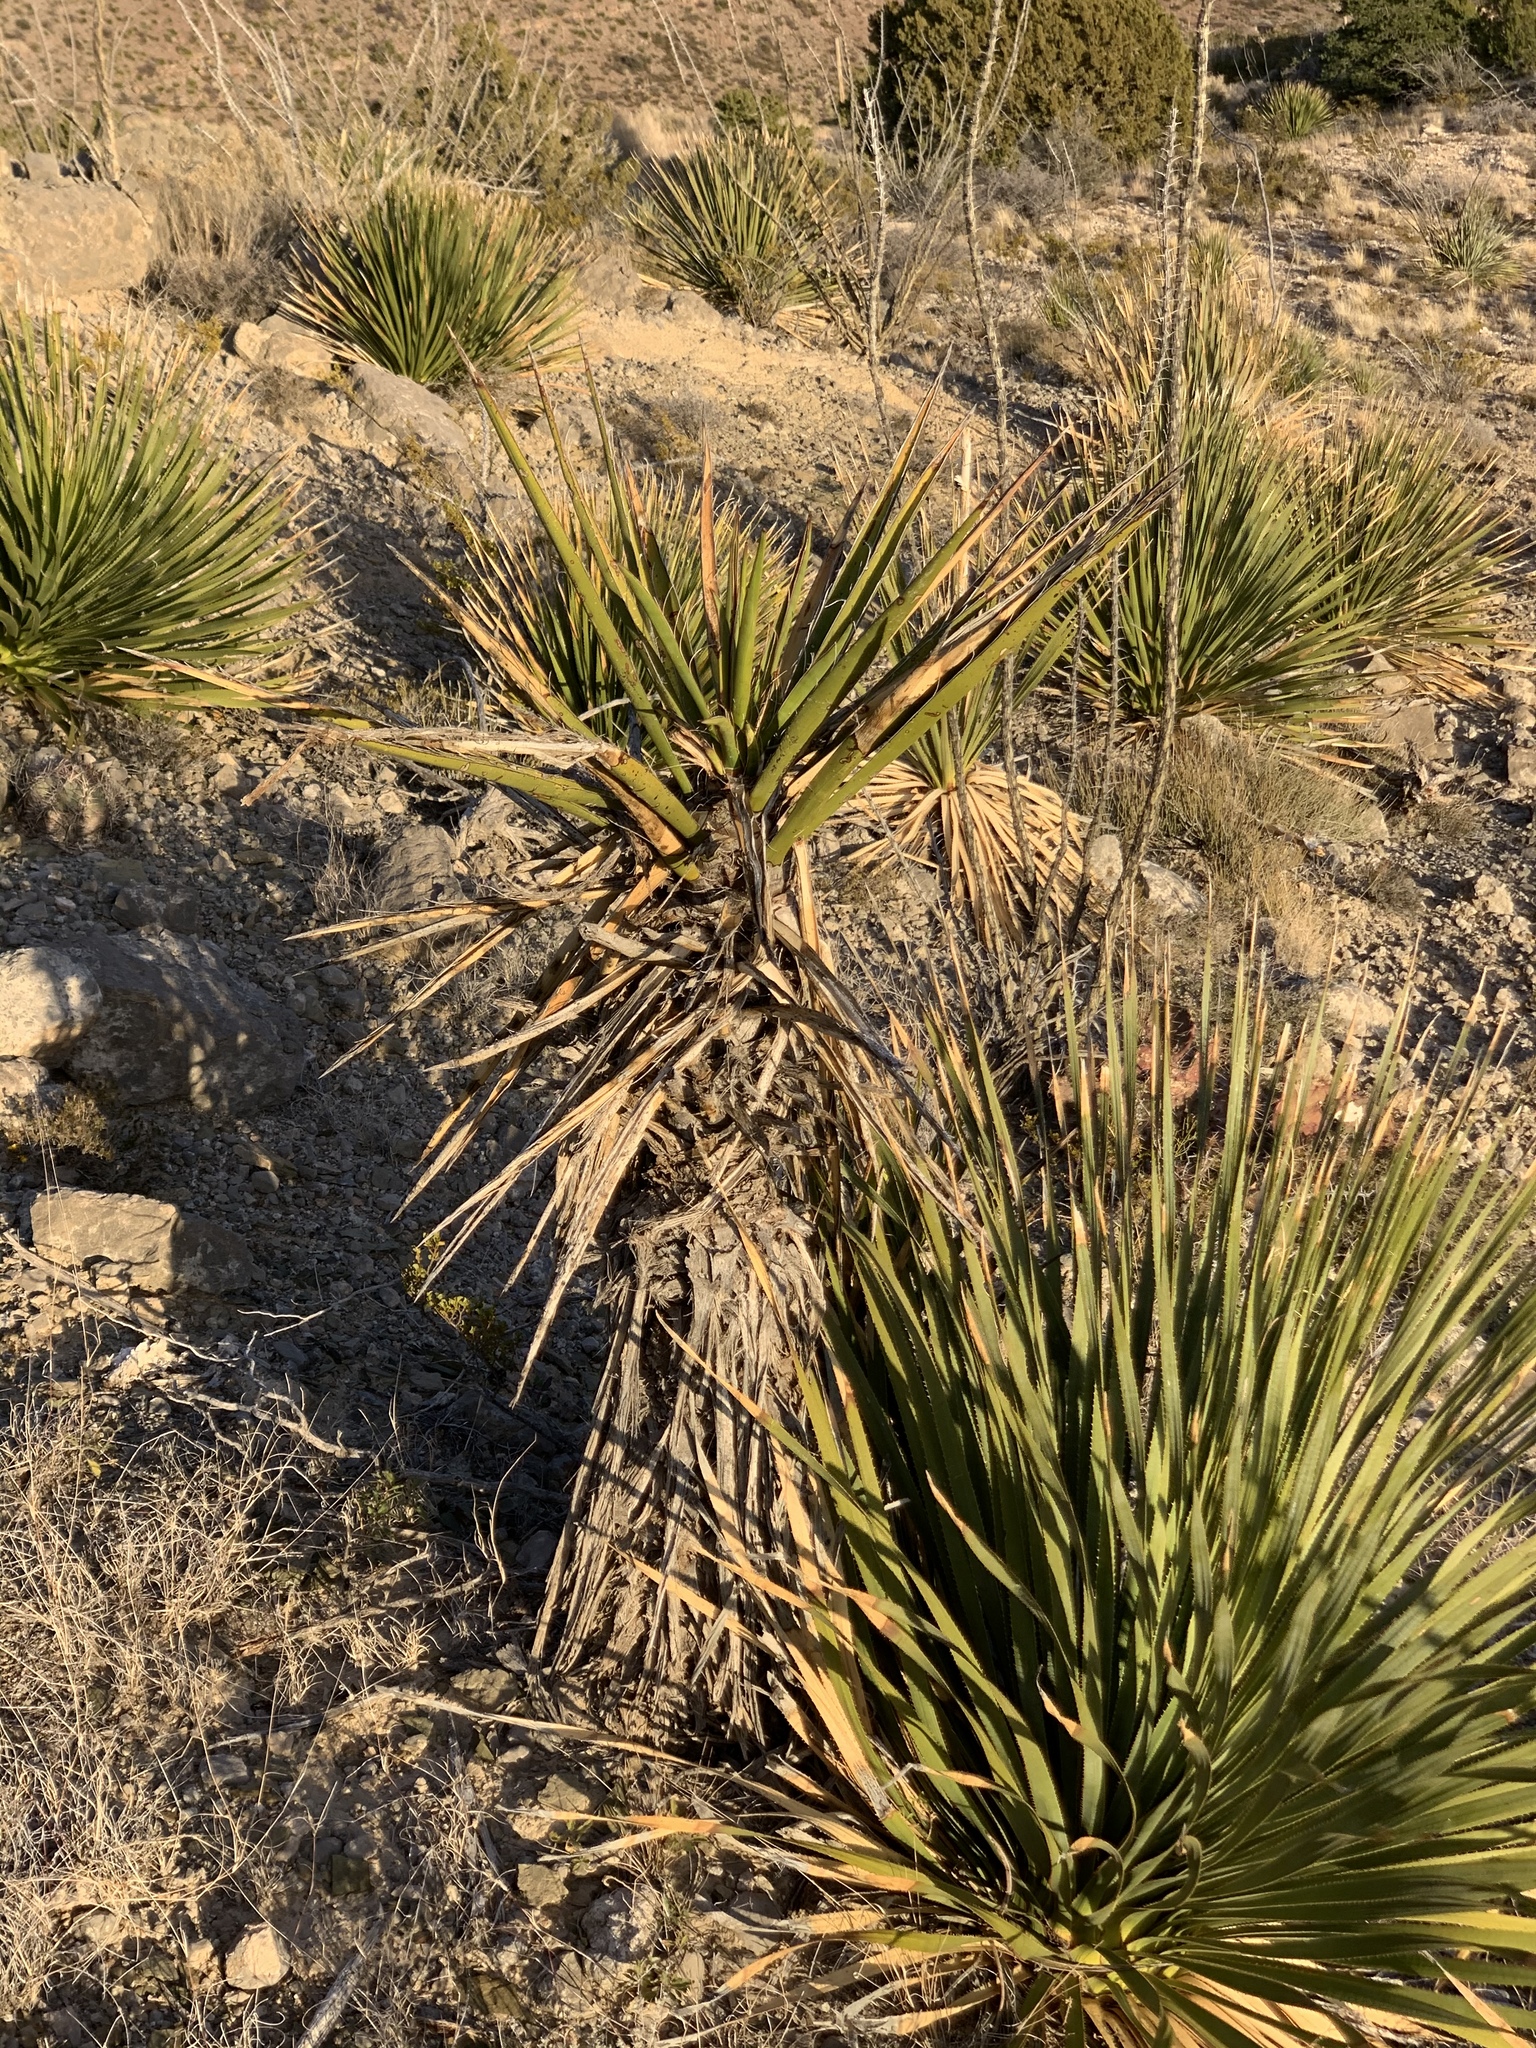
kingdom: Plantae
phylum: Tracheophyta
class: Liliopsida
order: Asparagales
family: Asparagaceae
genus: Yucca
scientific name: Yucca treculiana
